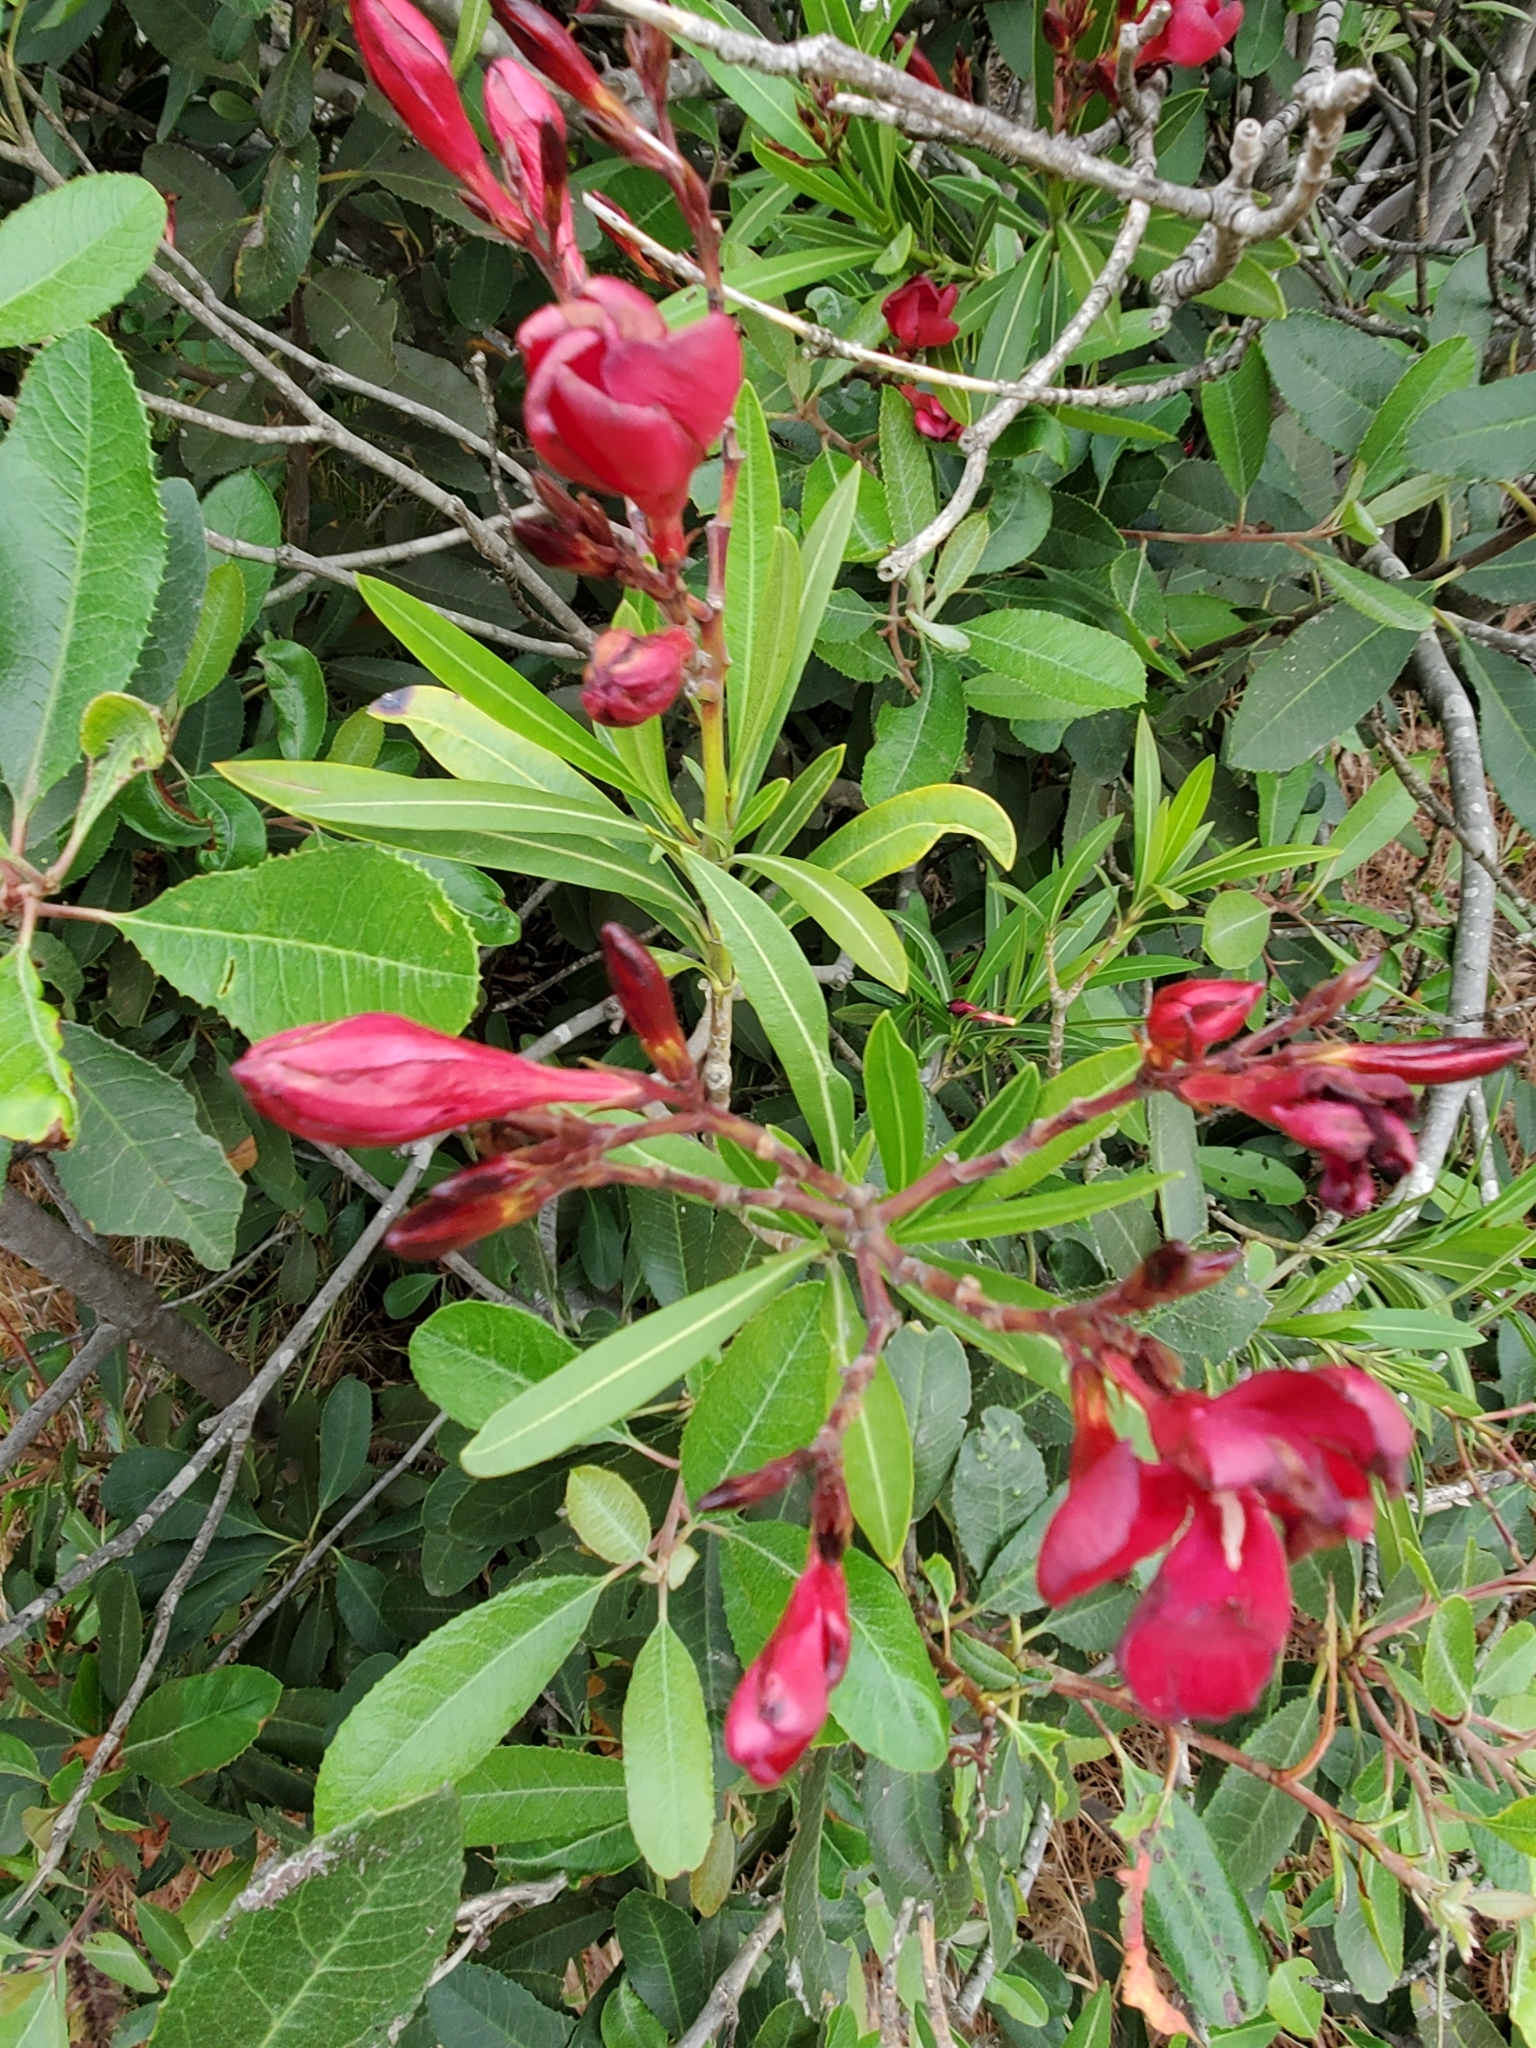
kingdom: Plantae
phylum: Tracheophyta
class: Magnoliopsida
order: Gentianales
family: Apocynaceae
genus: Nerium
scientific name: Nerium oleander
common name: Oleander
